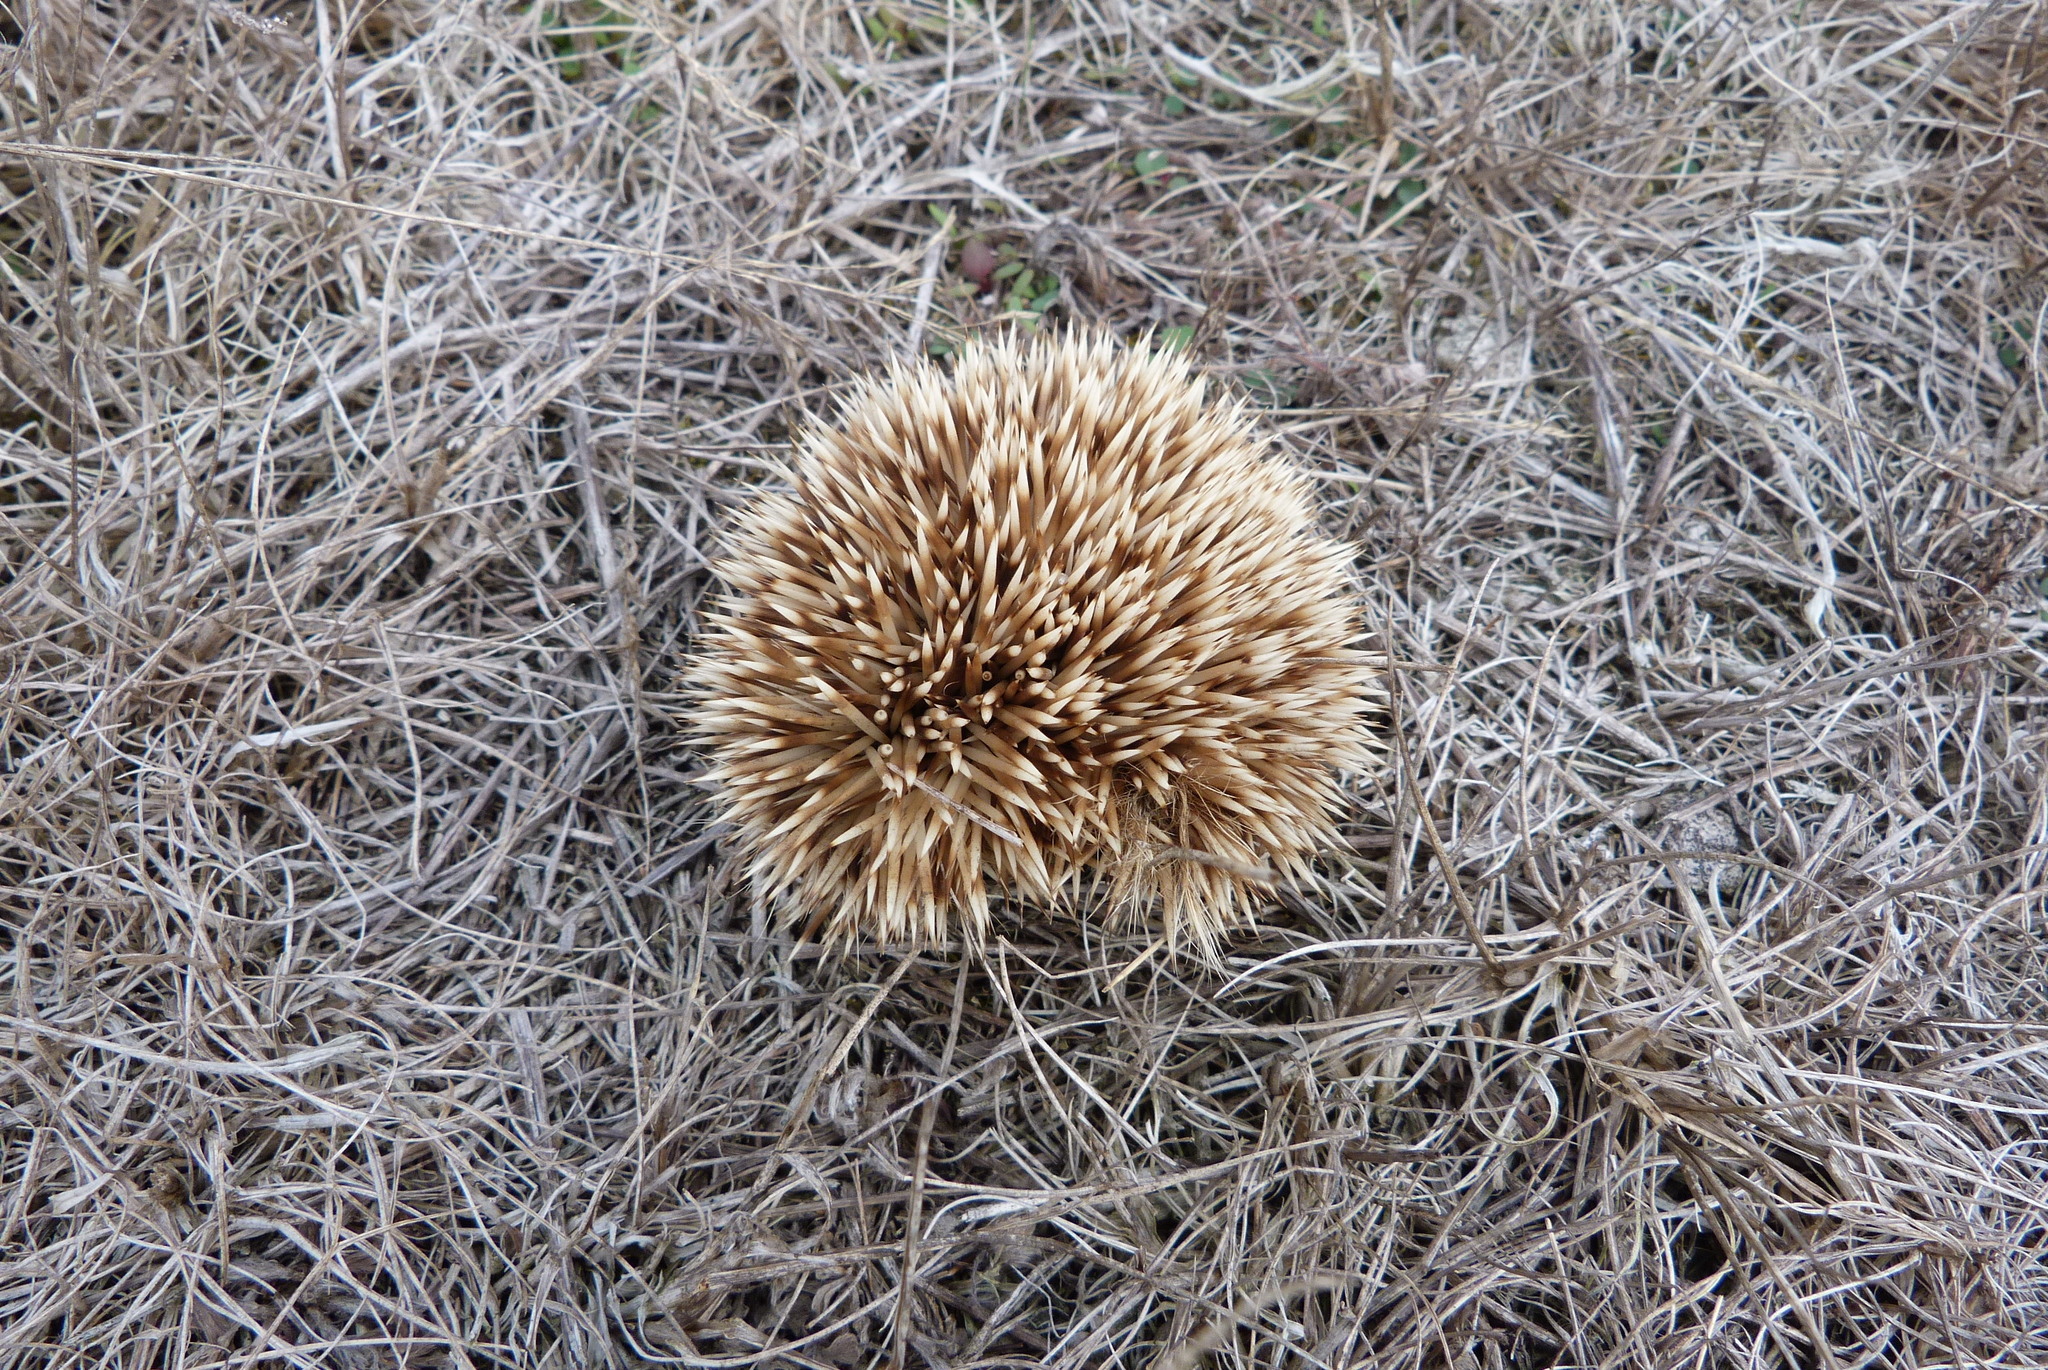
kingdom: Animalia
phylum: Chordata
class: Mammalia
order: Erinaceomorpha
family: Erinaceidae
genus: Erinaceus
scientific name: Erinaceus europaeus
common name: West european hedgehog
